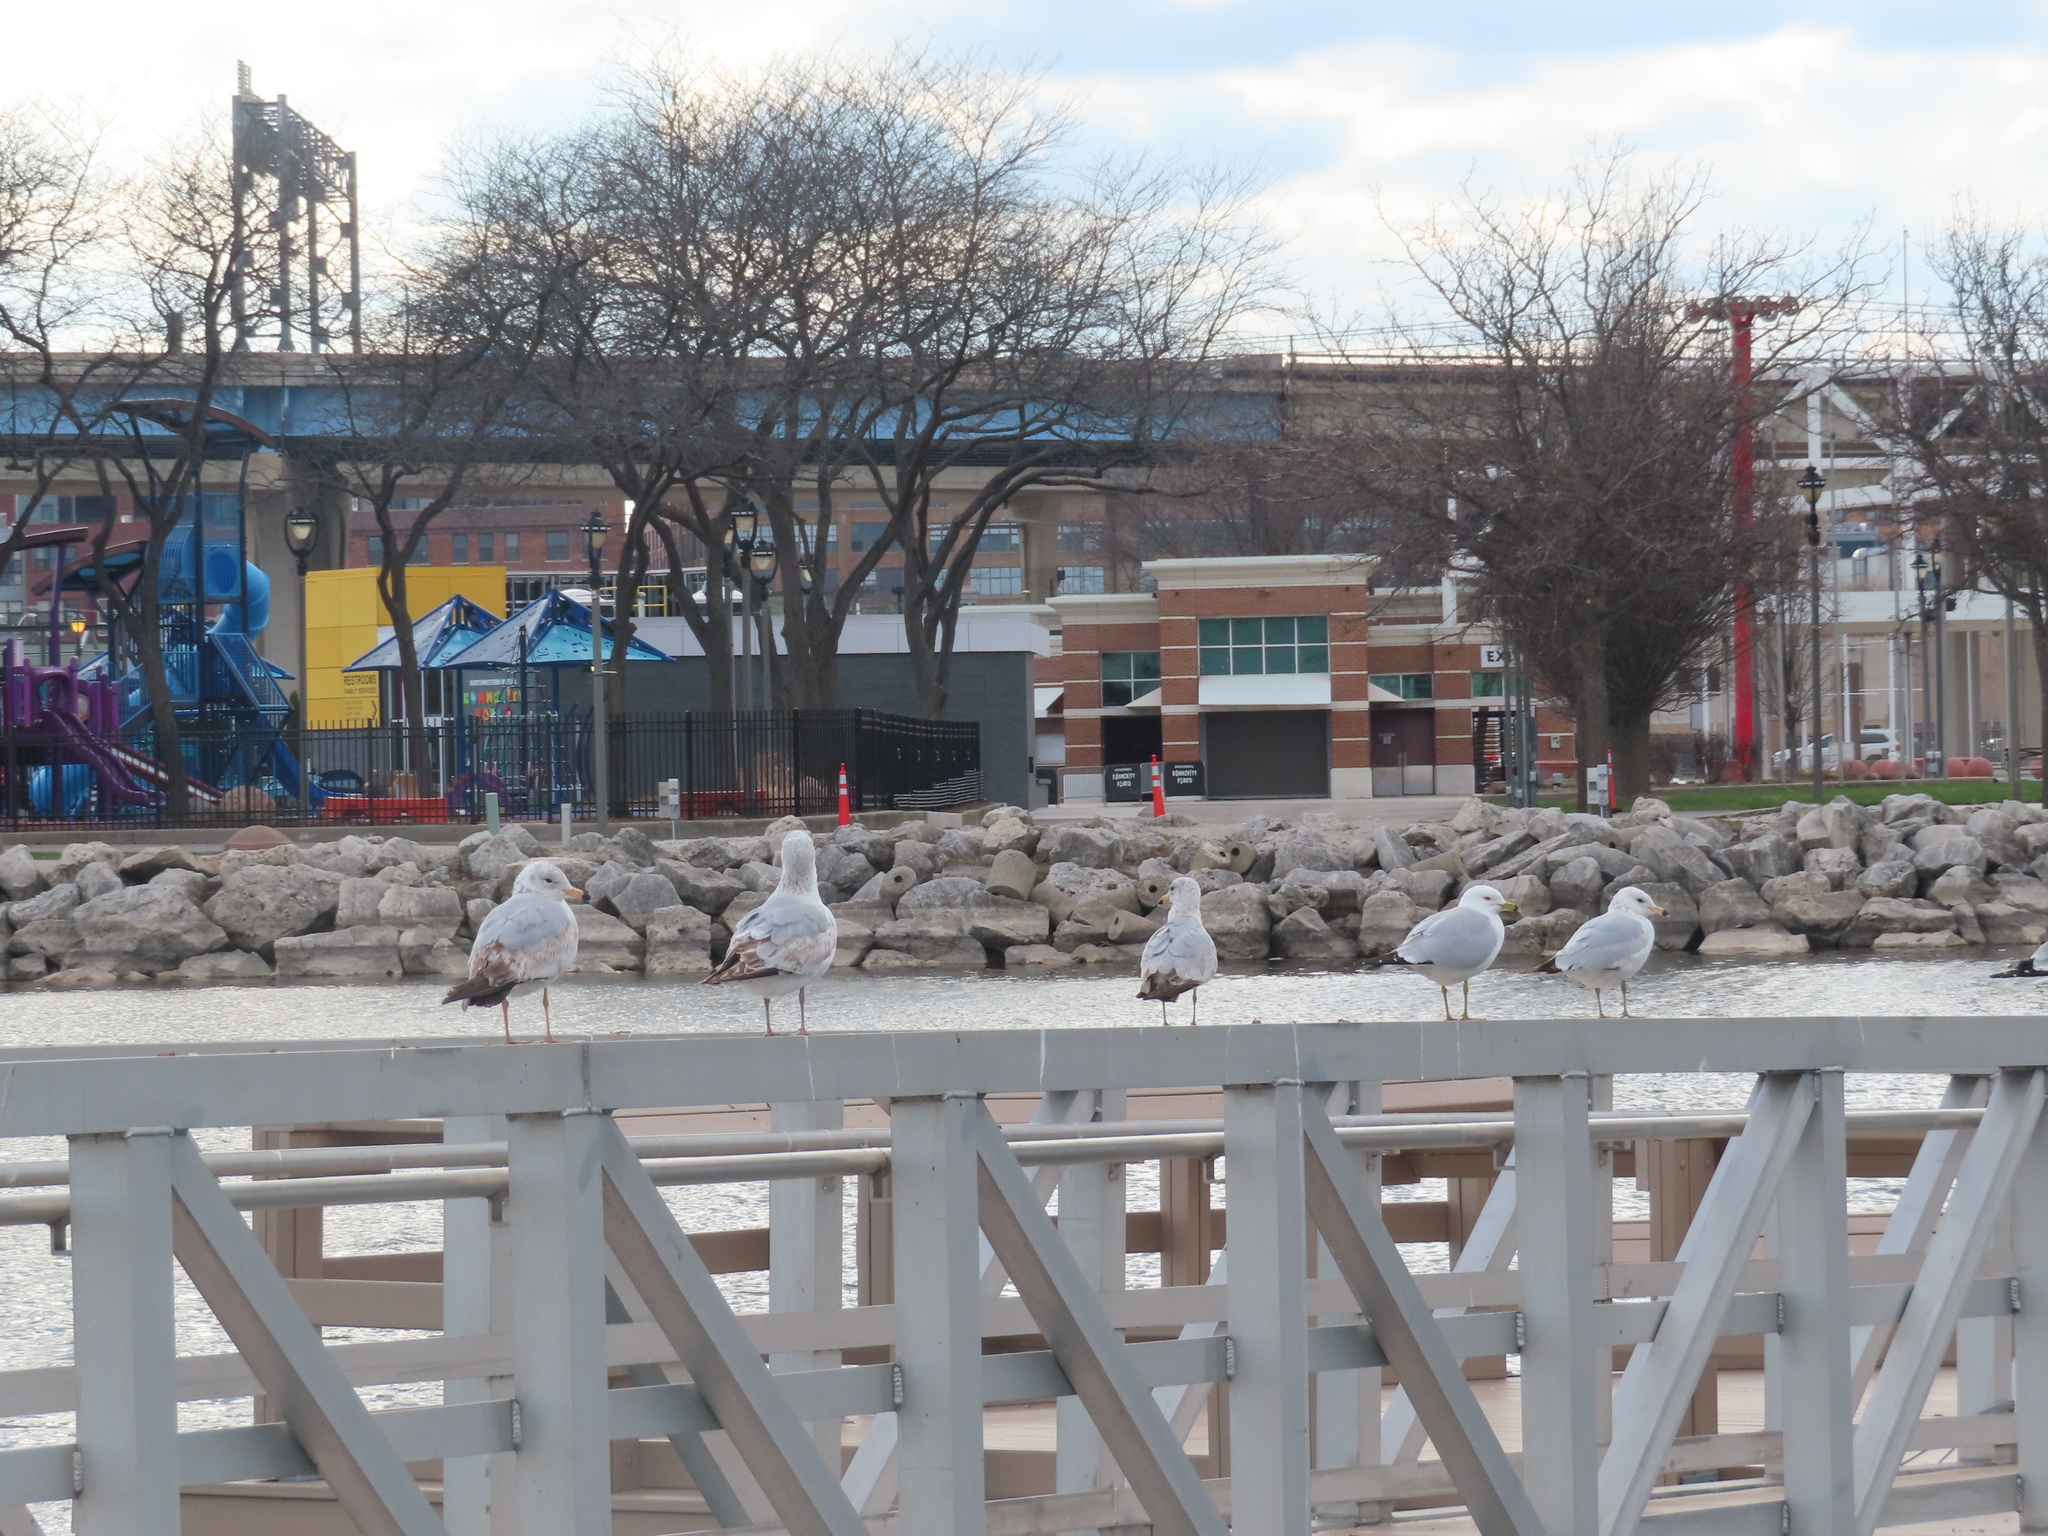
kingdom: Animalia
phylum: Chordata
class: Aves
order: Charadriiformes
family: Laridae
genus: Larus
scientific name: Larus delawarensis
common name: Ring-billed gull
